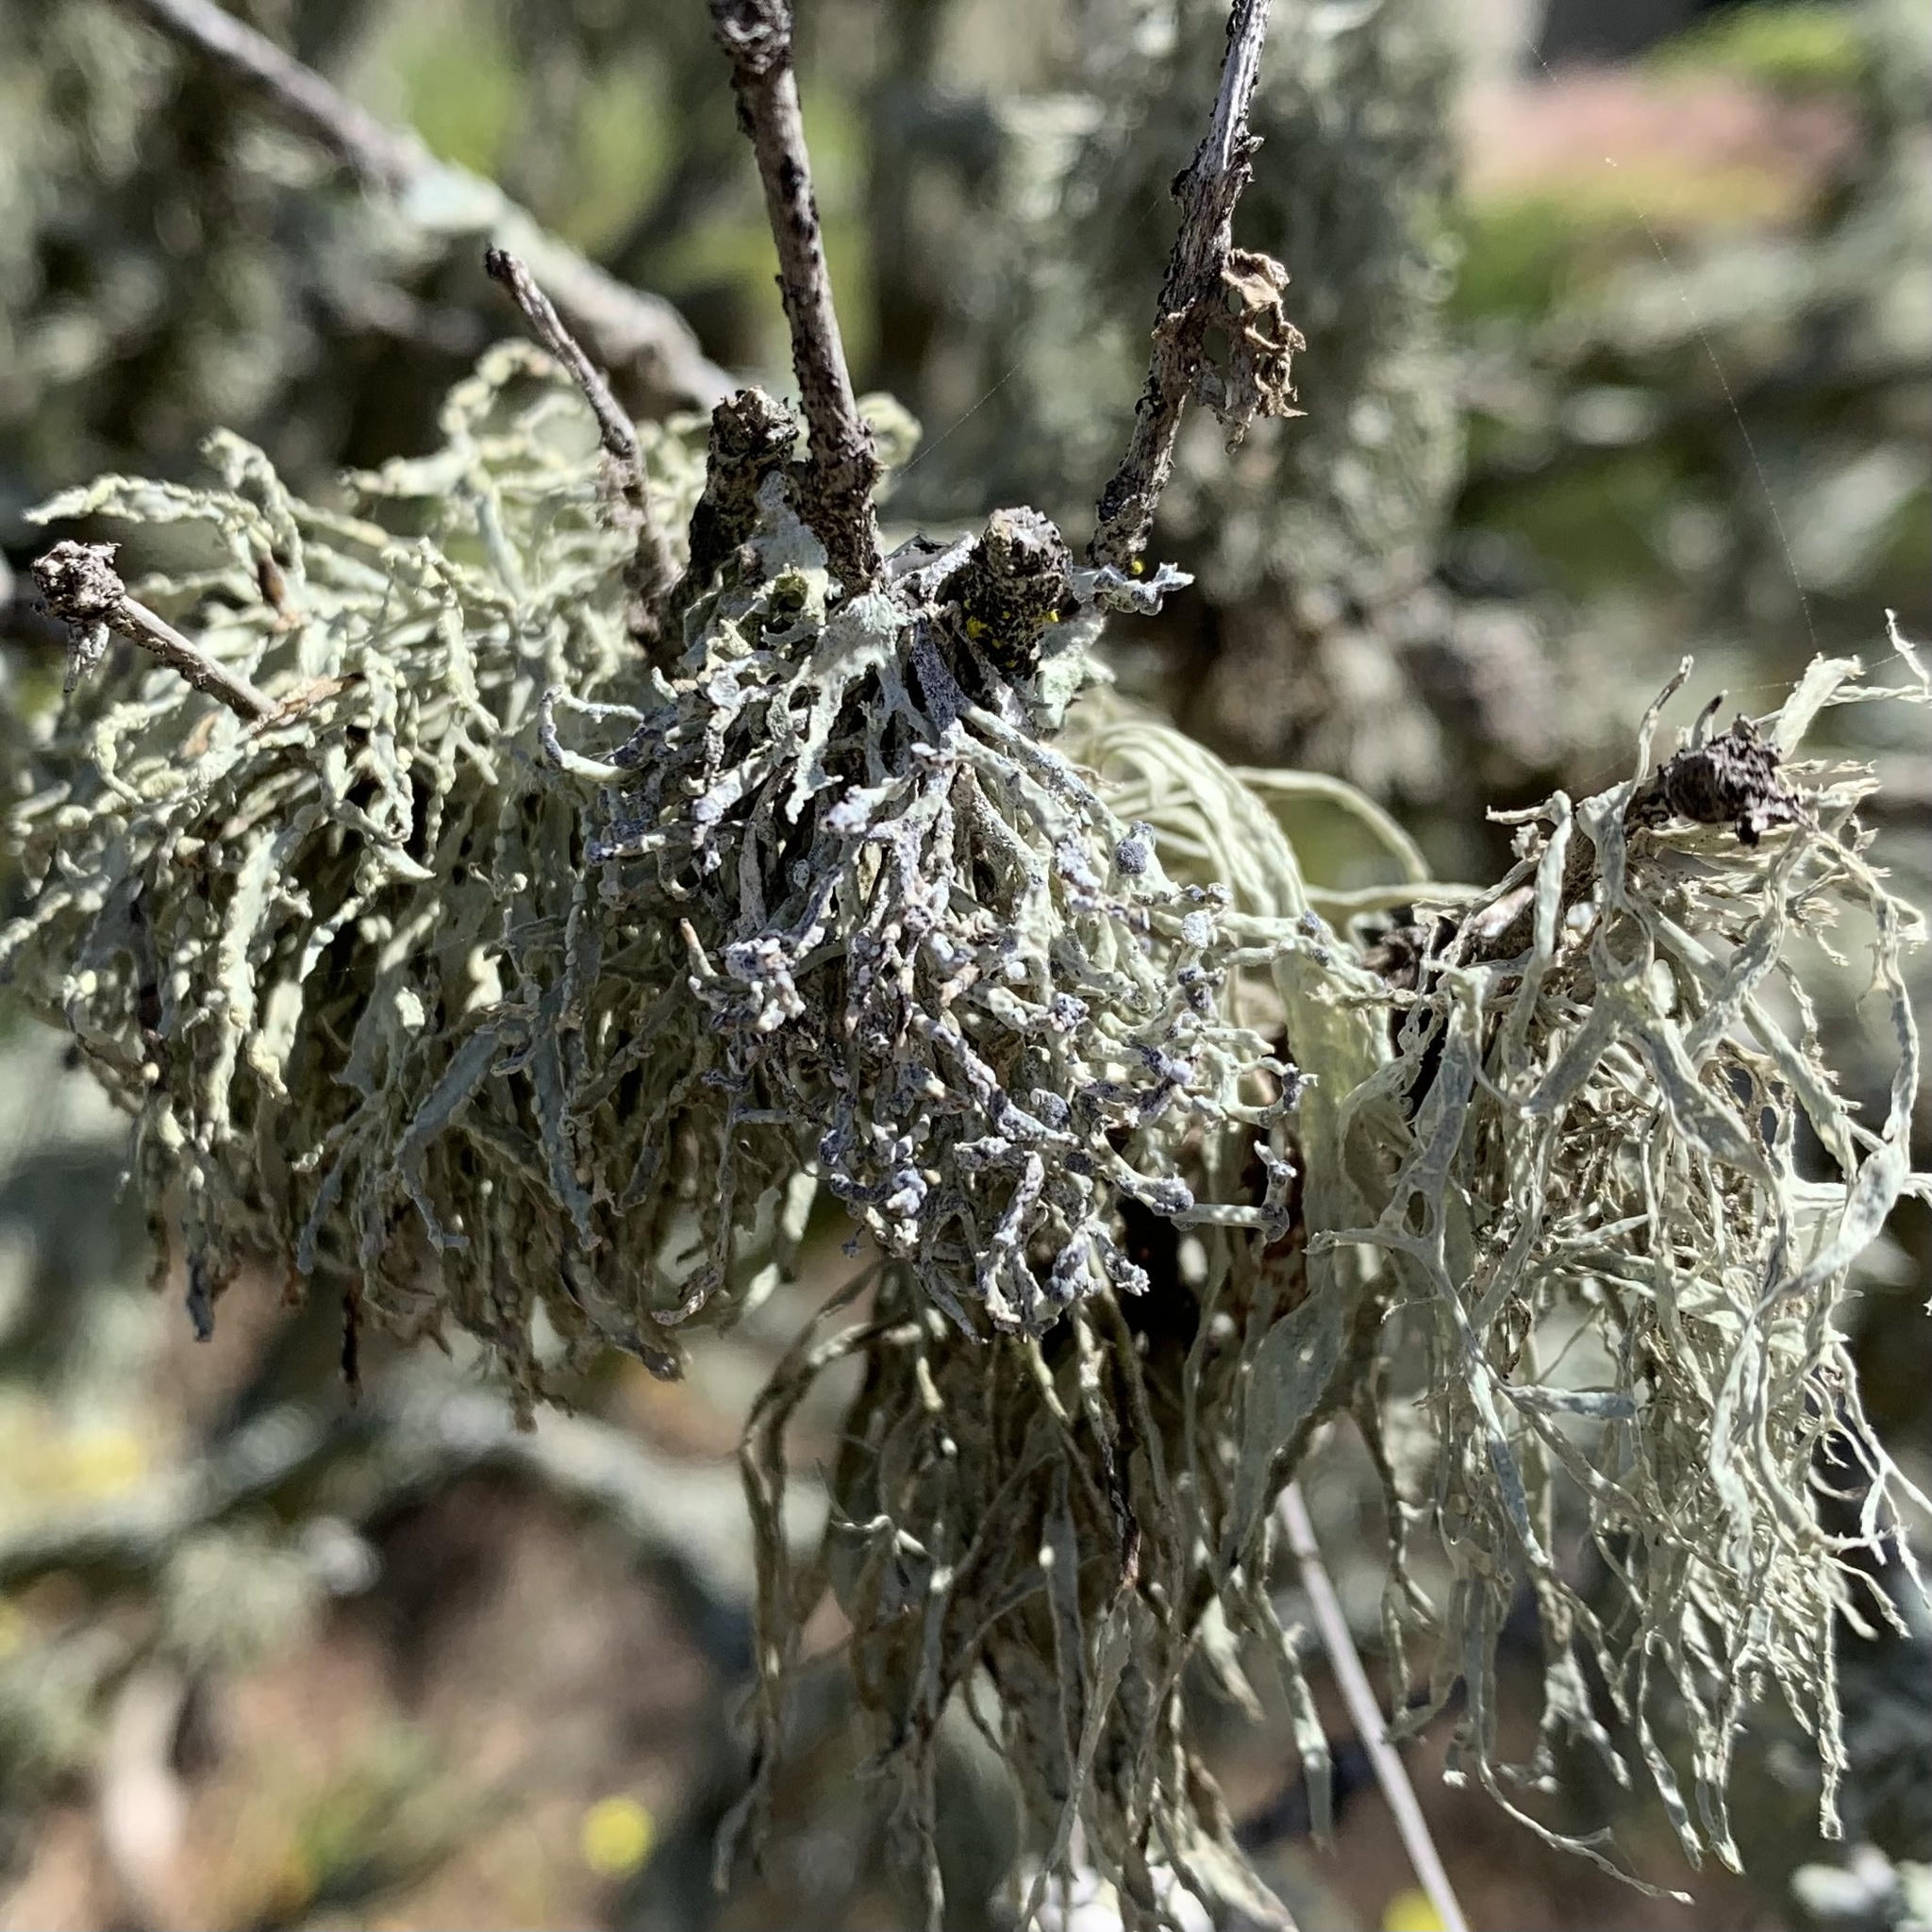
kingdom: Fungi
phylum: Ascomycota
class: Lecanoromycetes
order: Lecanorales
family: Ramalinaceae
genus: Niebla
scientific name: Niebla cephalota
